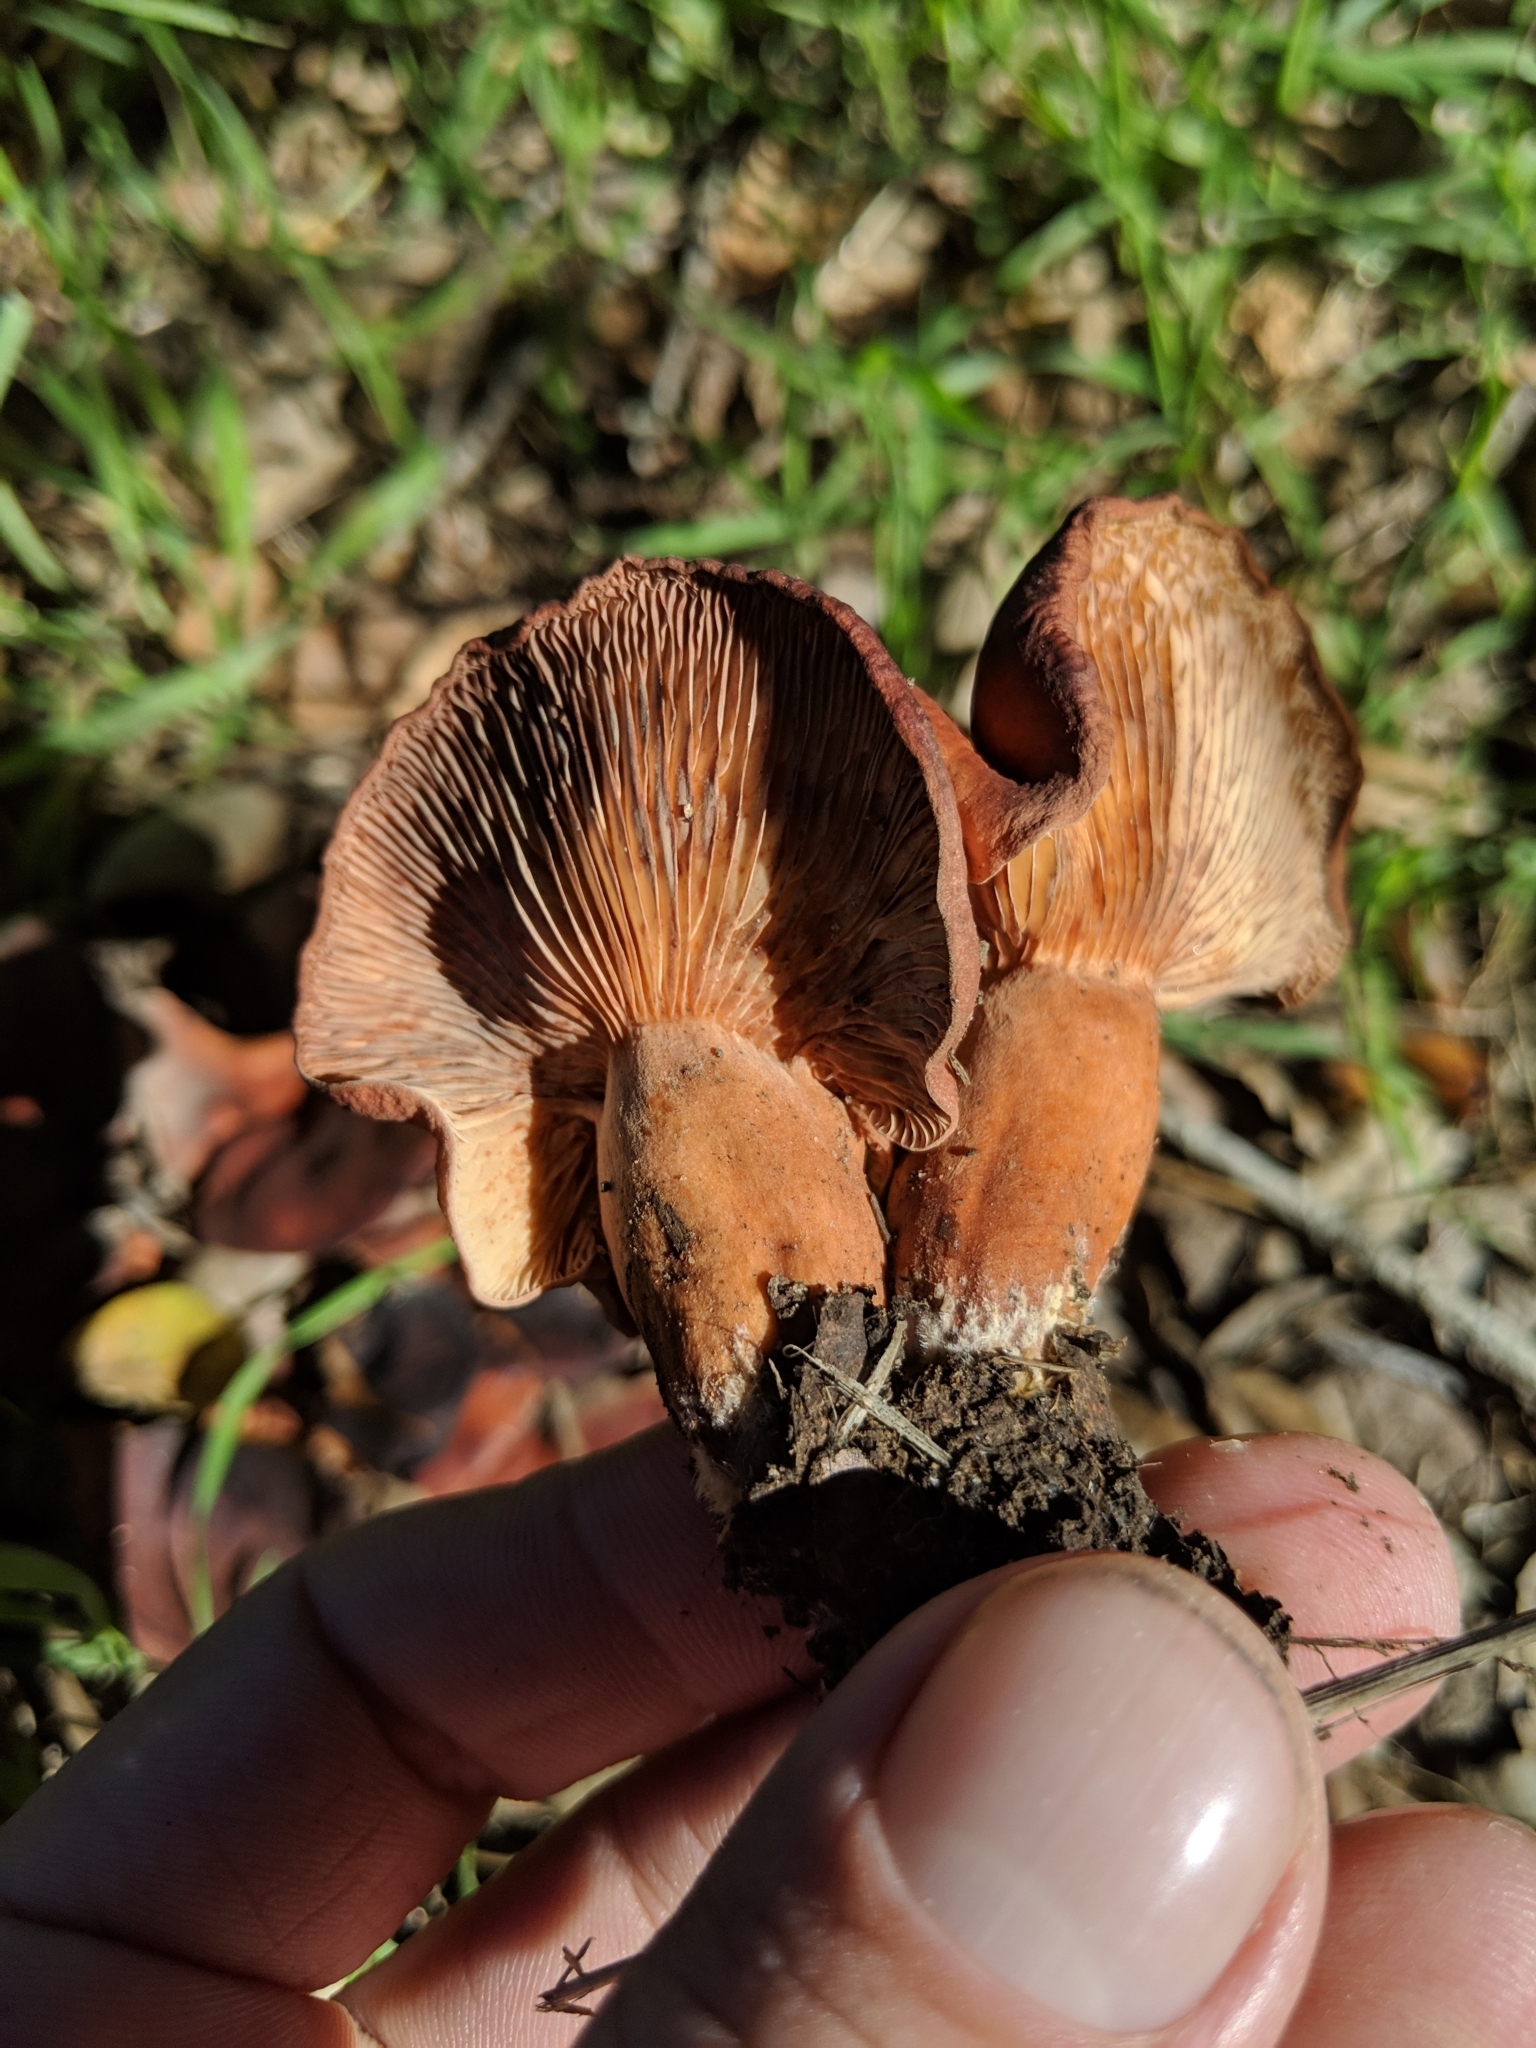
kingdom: Fungi
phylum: Basidiomycota
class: Agaricomycetes
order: Russulales
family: Russulaceae
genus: Lactarius
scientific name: Lactarius rufulus
